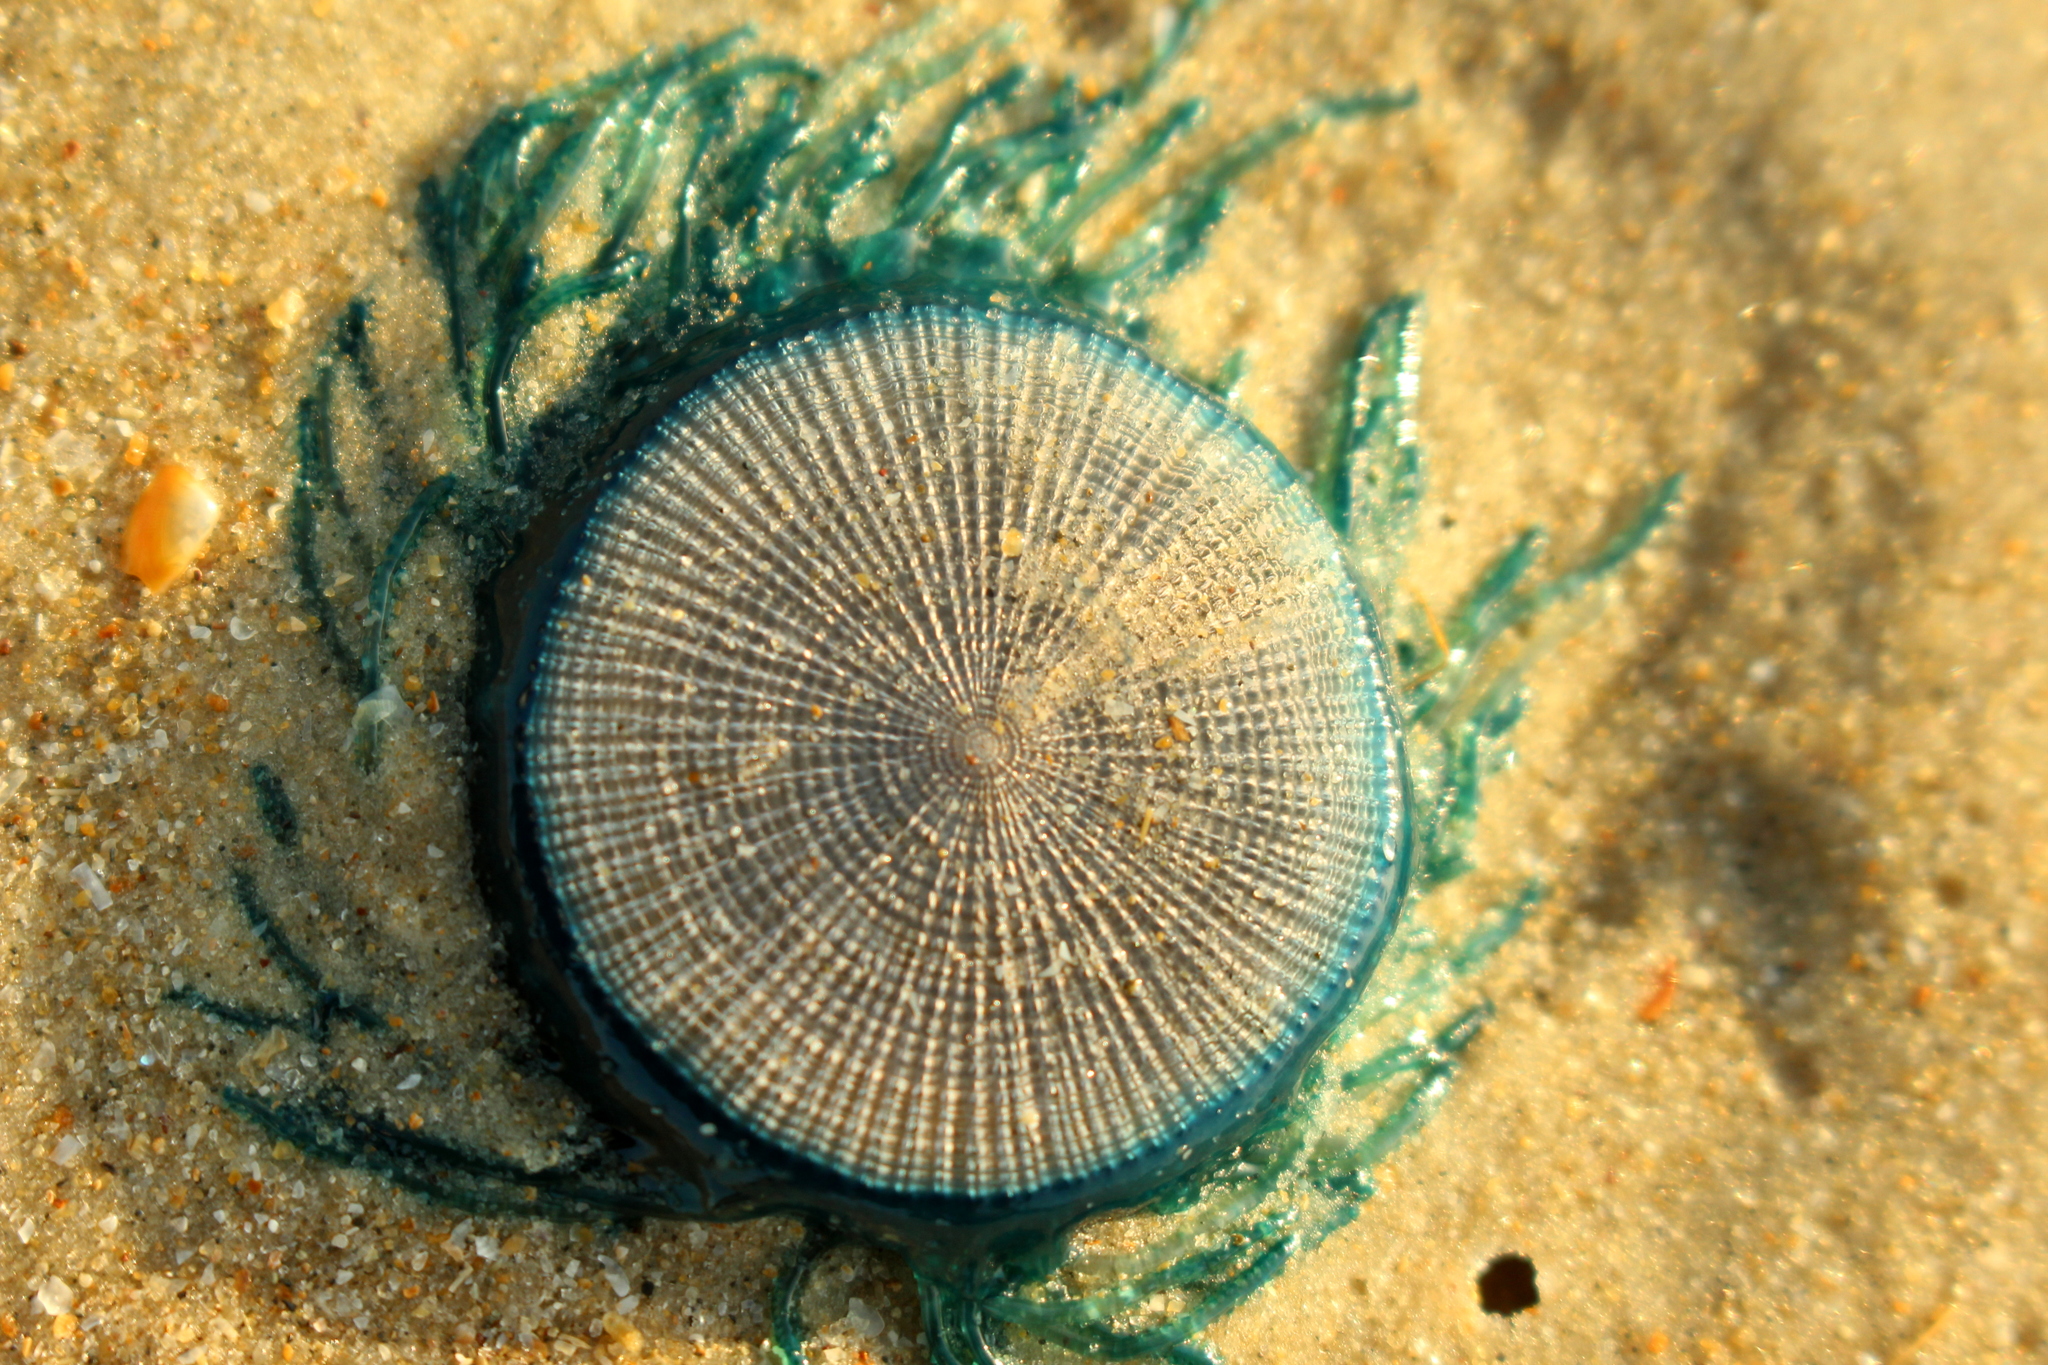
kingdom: Animalia
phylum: Cnidaria
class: Hydrozoa
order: Anthoathecata
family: Porpitidae
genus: Porpita
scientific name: Porpita porpita
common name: Blue button
